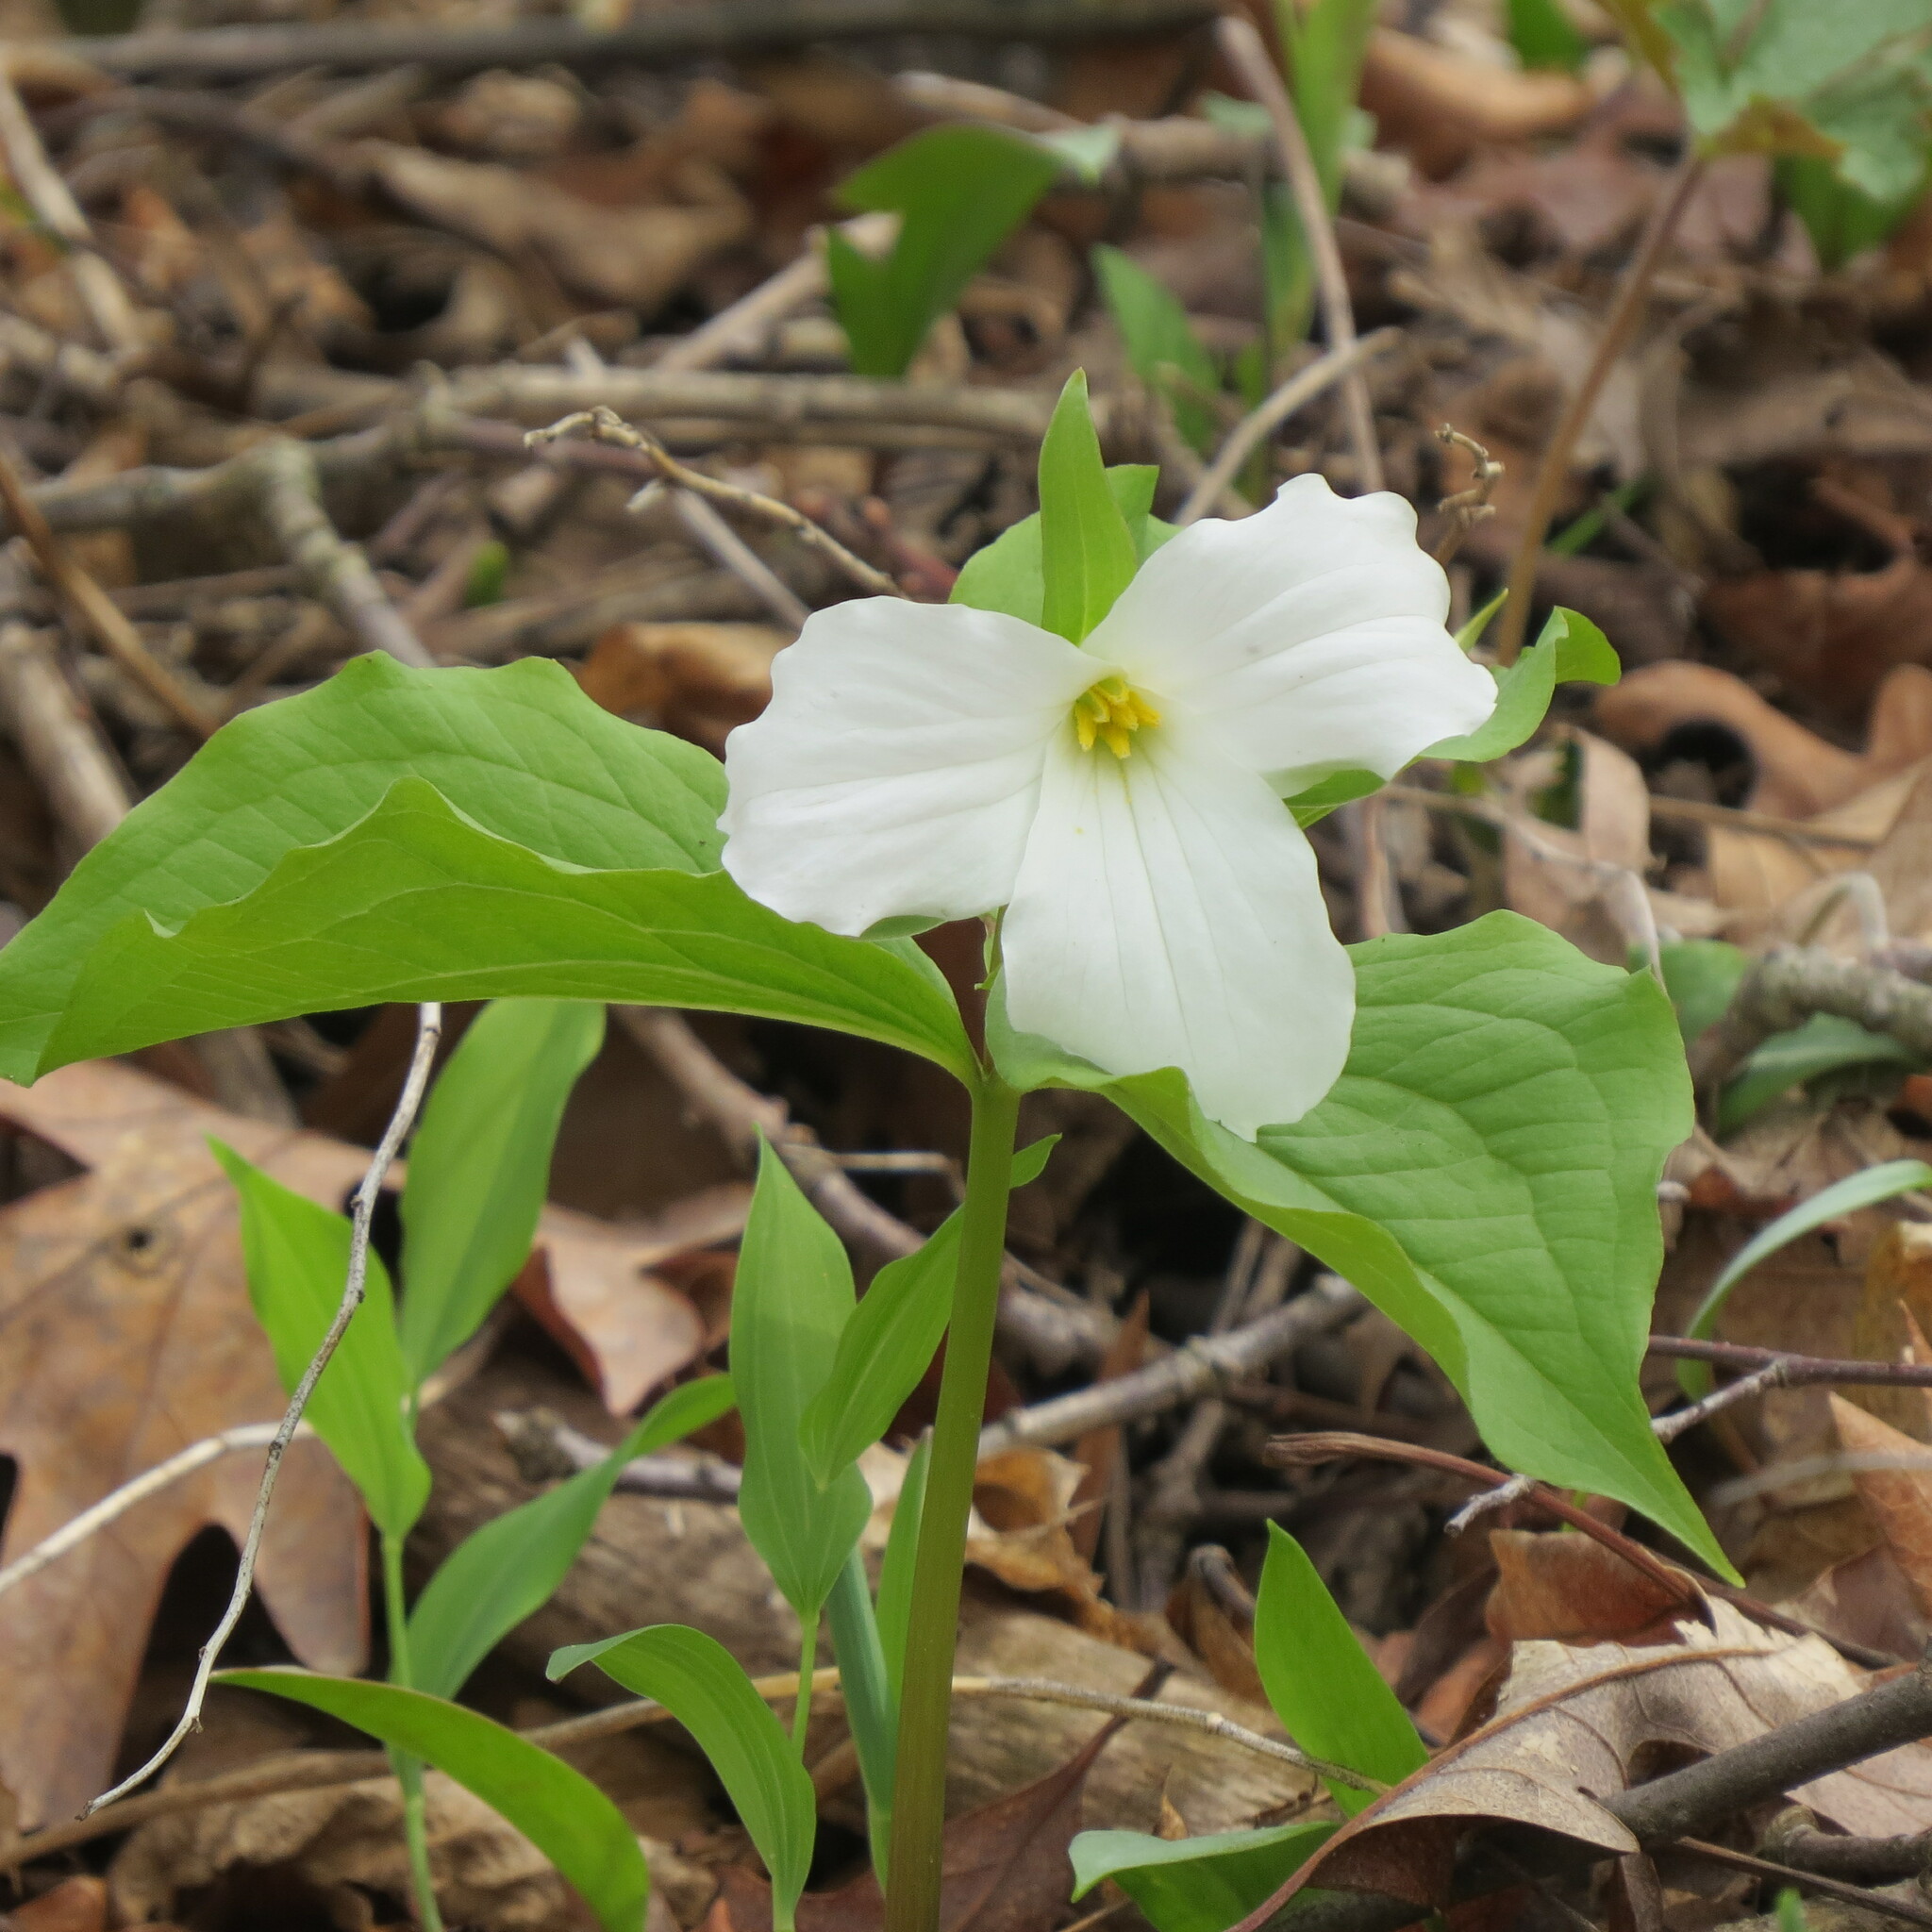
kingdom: Plantae
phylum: Tracheophyta
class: Liliopsida
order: Liliales
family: Melanthiaceae
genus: Trillium
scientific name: Trillium grandiflorum
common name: Great white trillium
